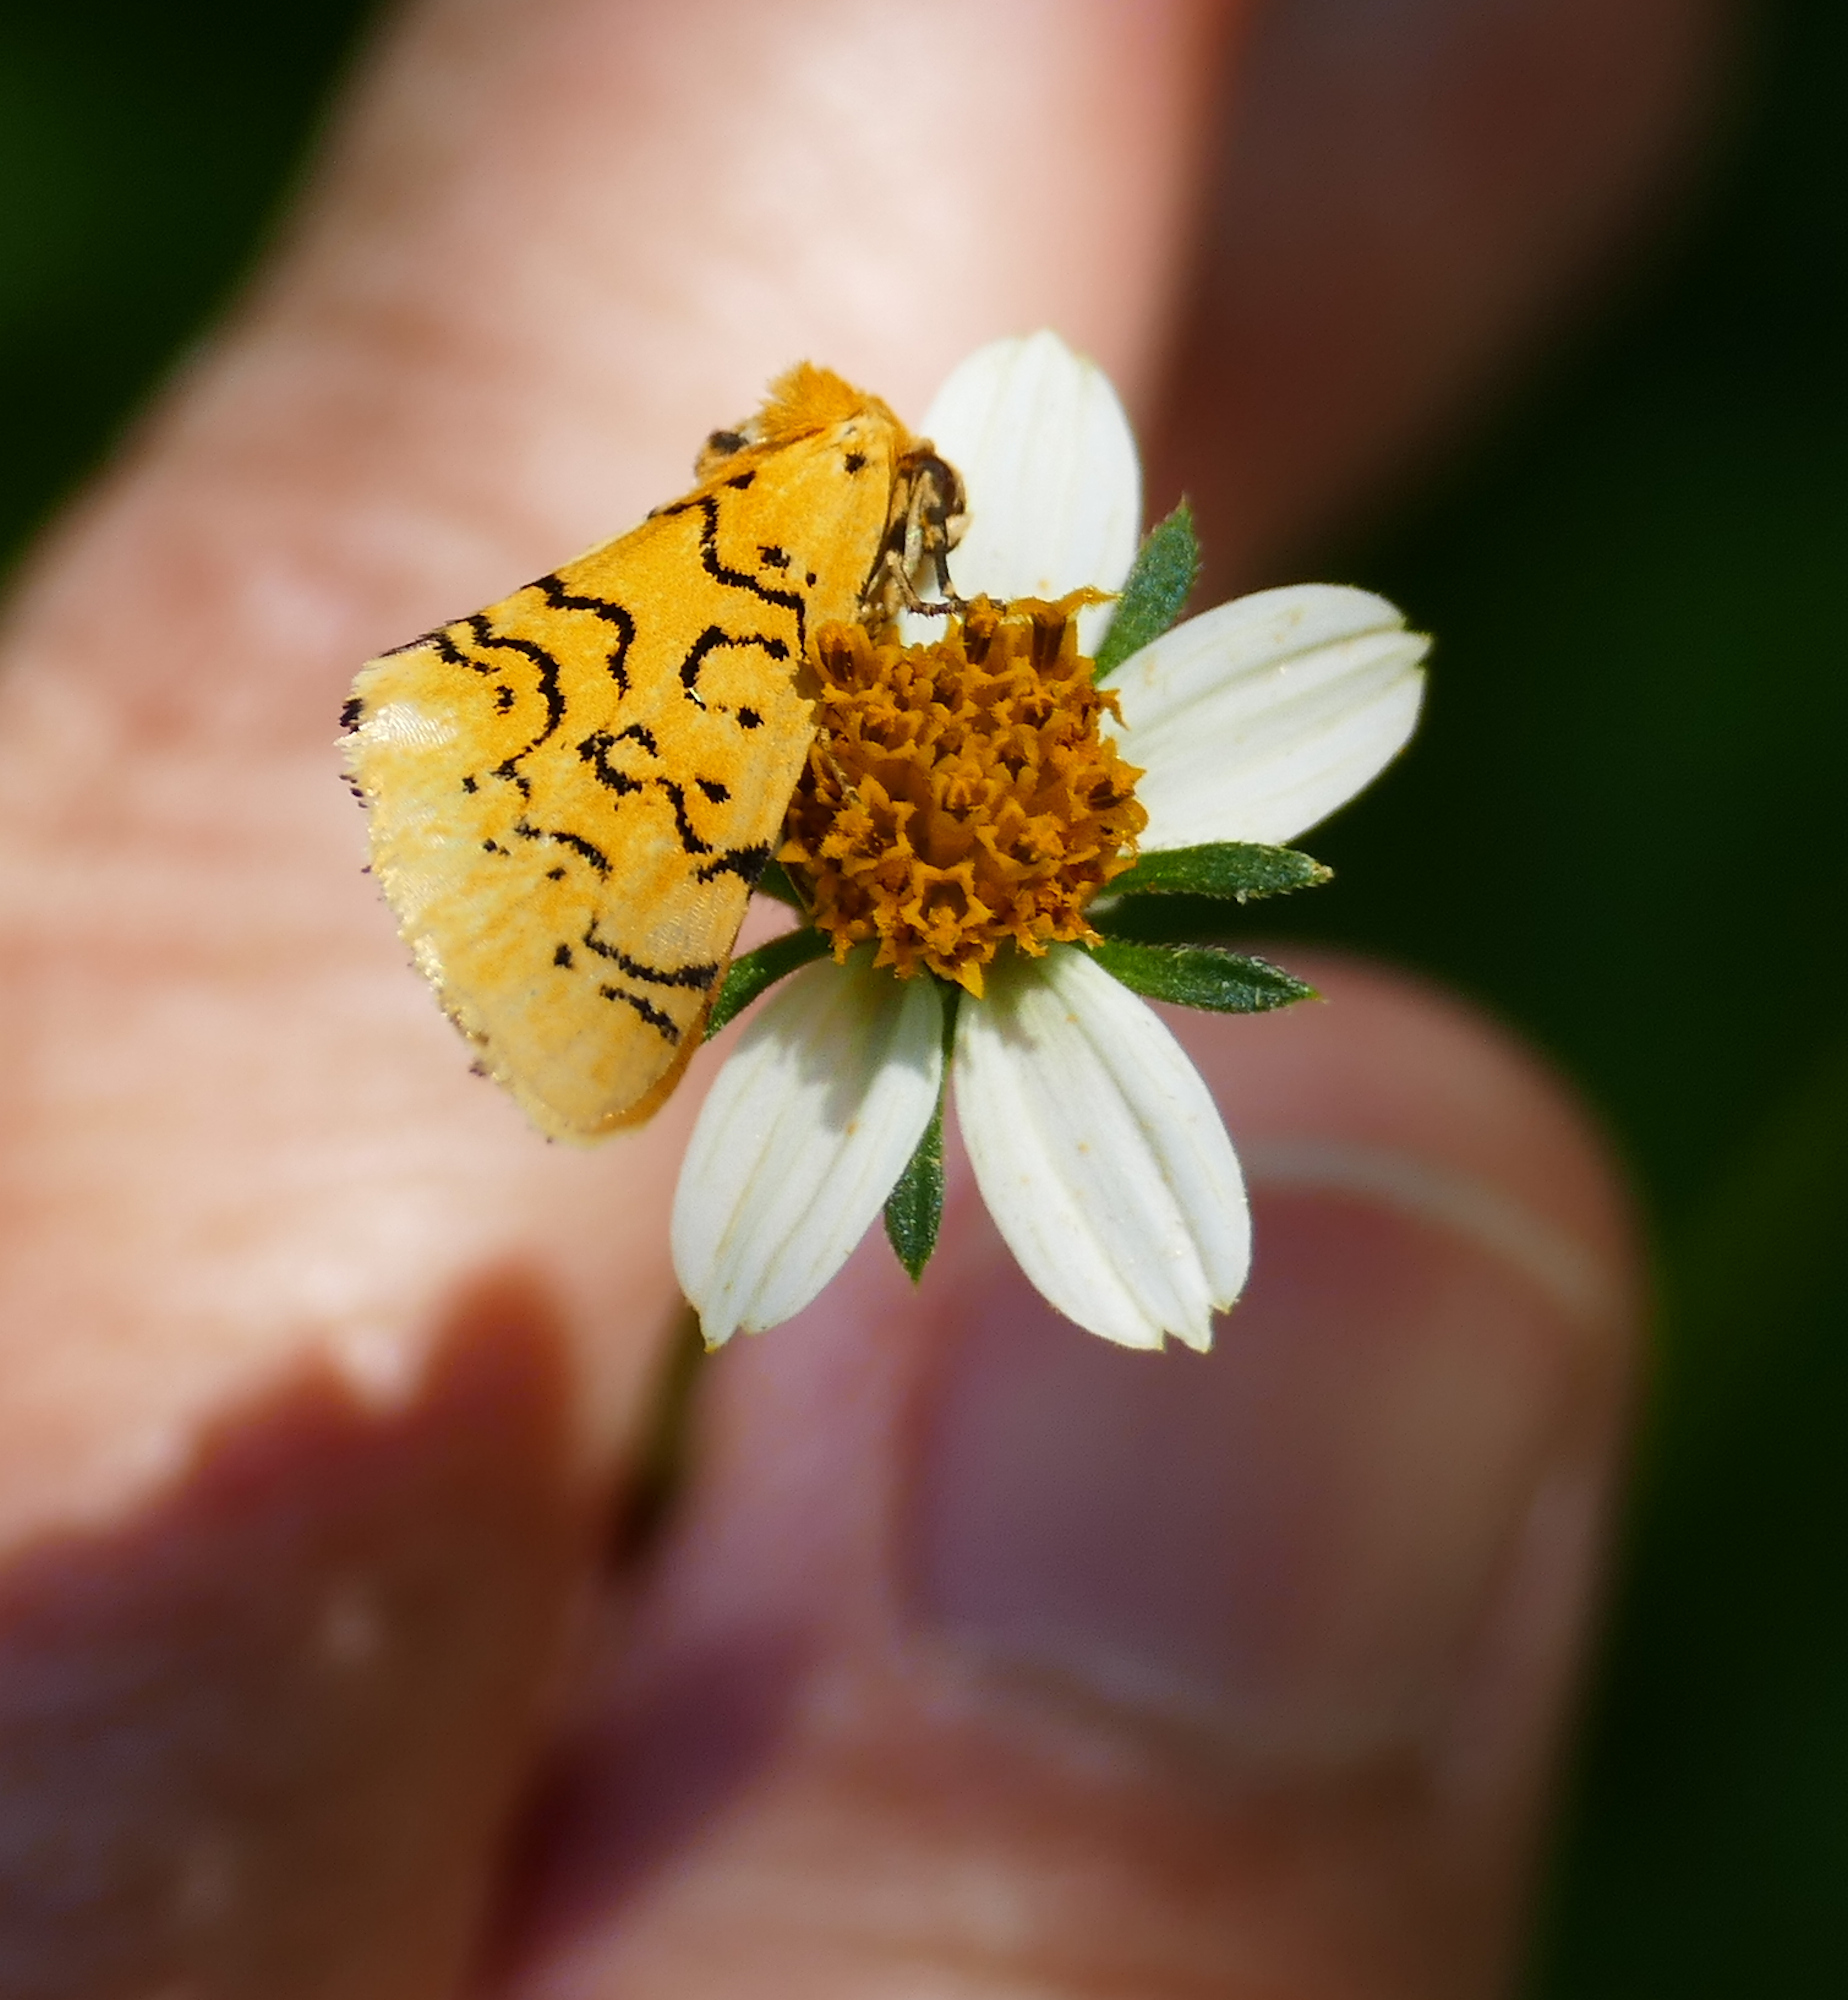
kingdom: Animalia
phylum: Arthropoda
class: Insecta
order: Lepidoptera
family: Noctuidae
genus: Chrysoecia
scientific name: Chrysoecia atrolinea
